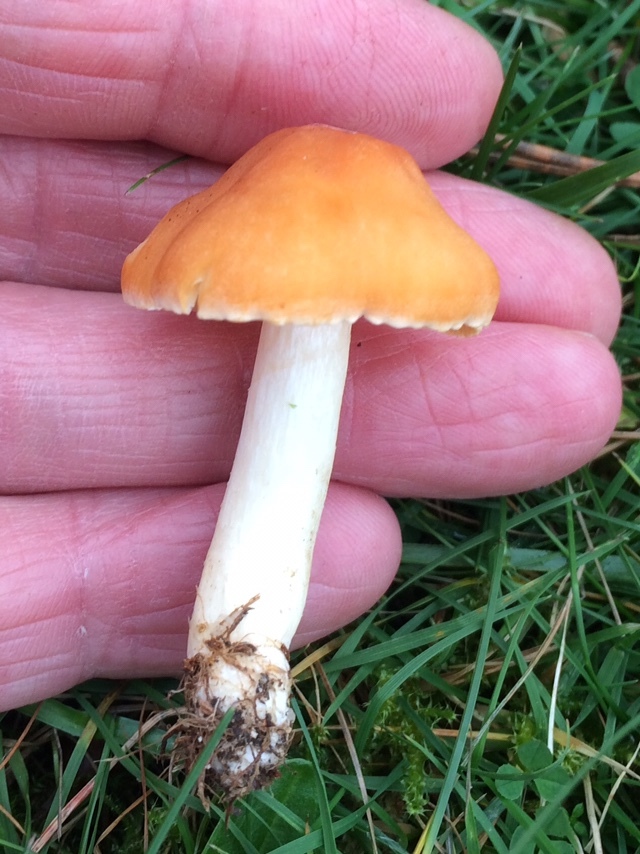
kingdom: Fungi
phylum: Basidiomycota
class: Agaricomycetes
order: Agaricales
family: Hygrophoraceae
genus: Cuphophyllus
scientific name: Cuphophyllus pratensis
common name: Meadow waxcap
